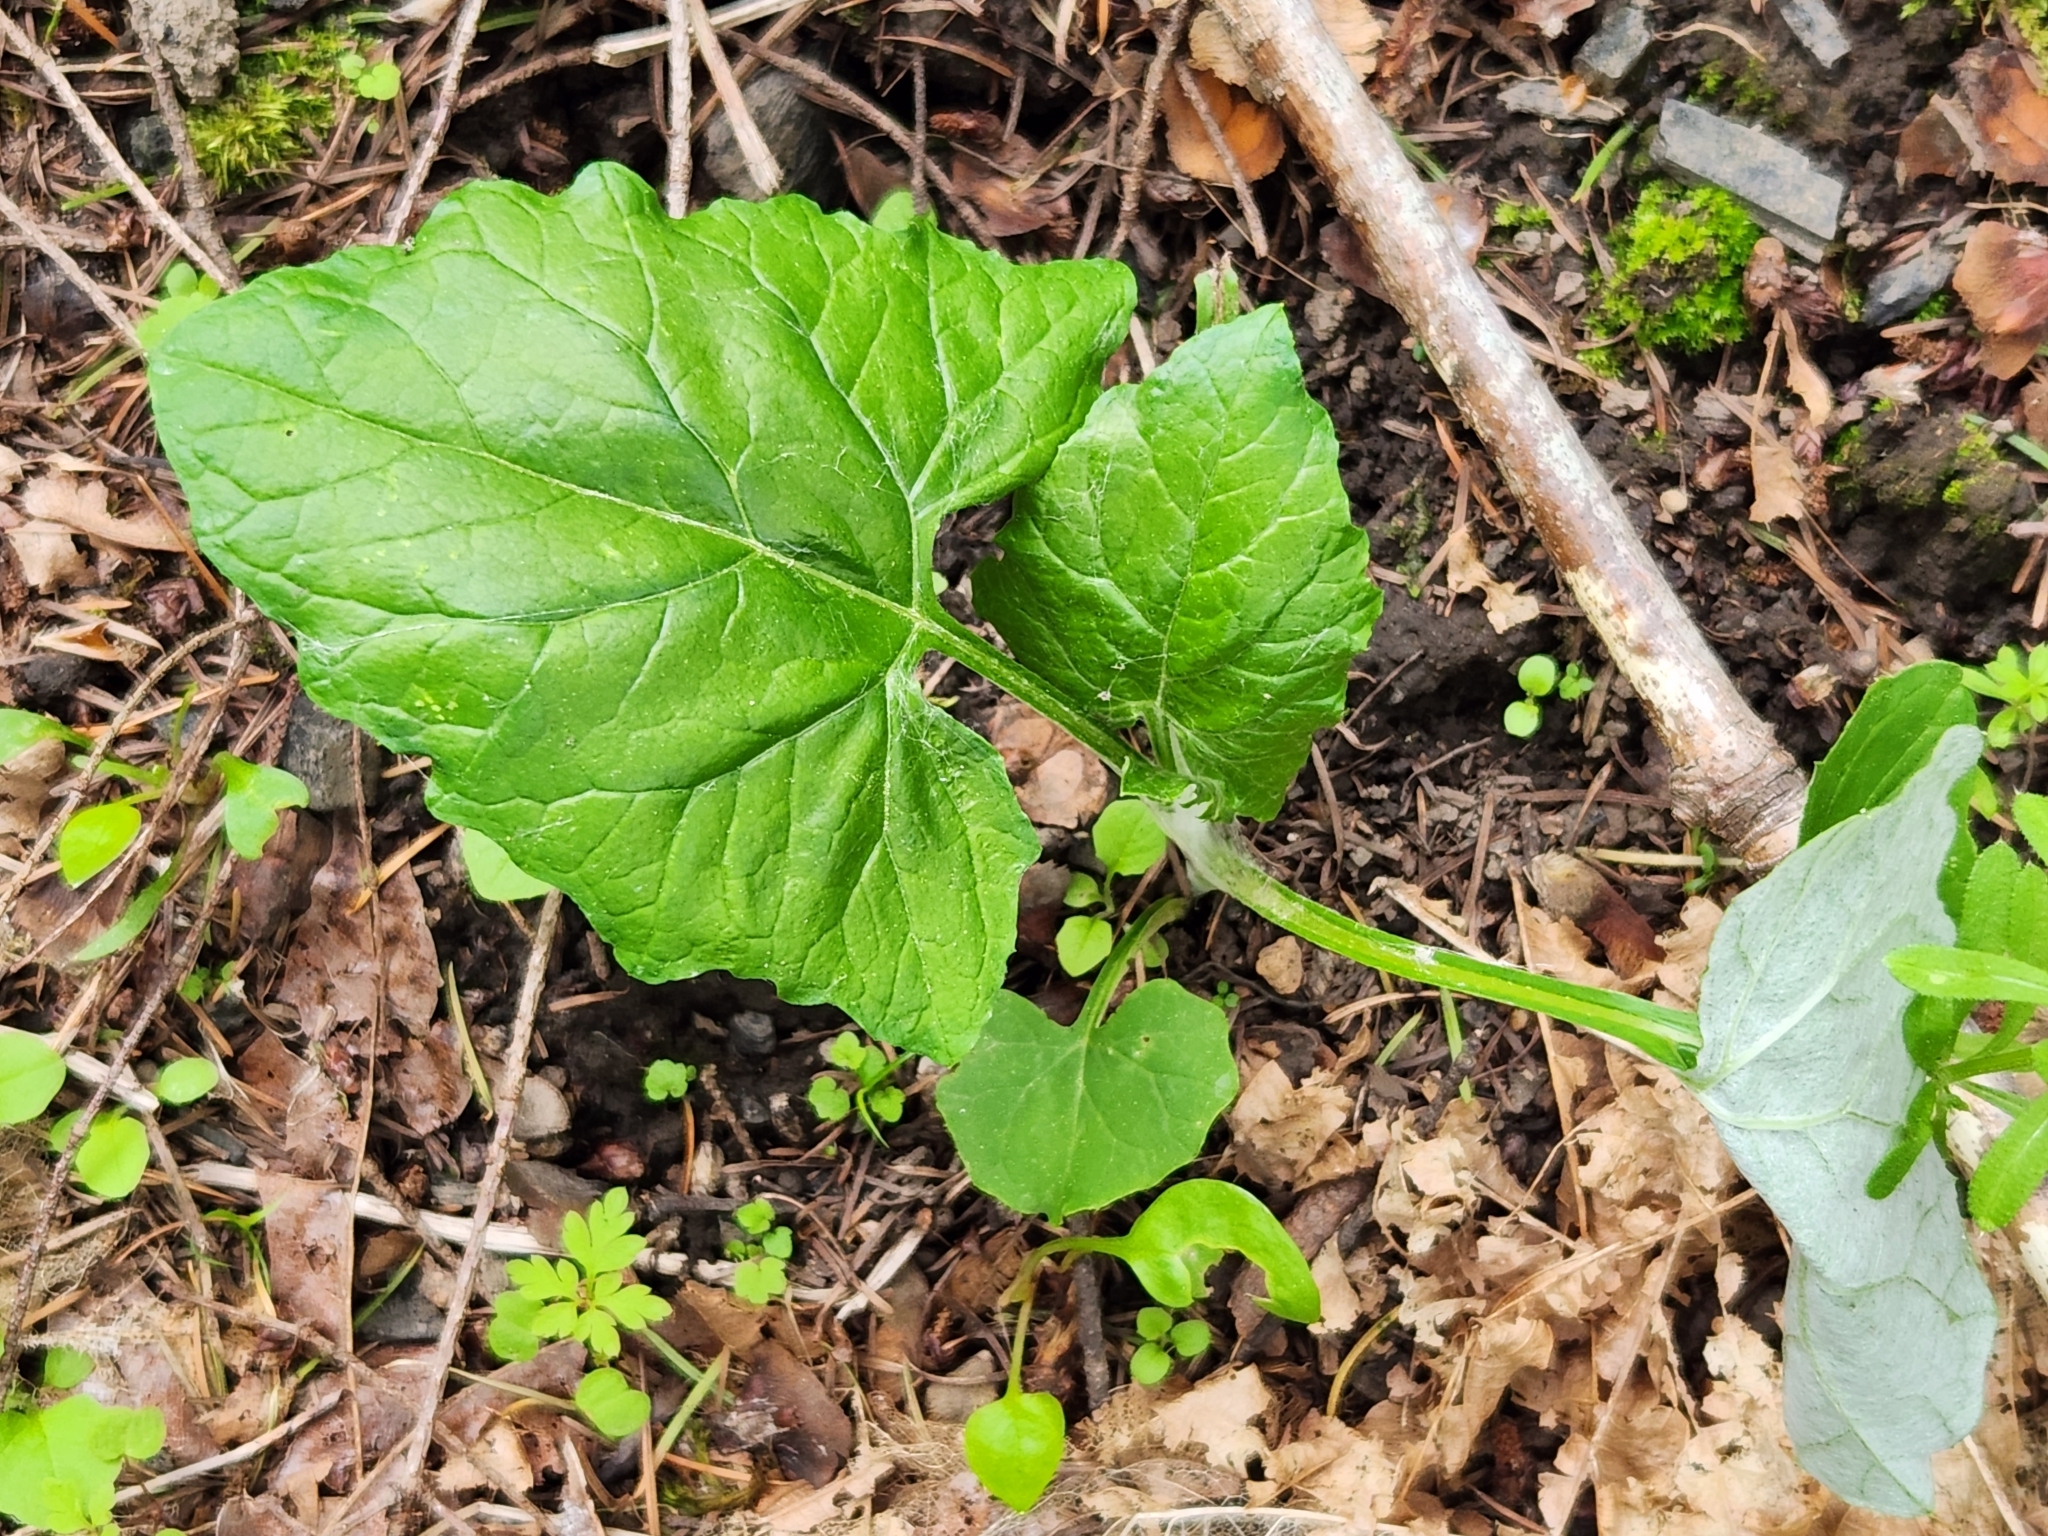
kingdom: Plantae
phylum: Tracheophyta
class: Magnoliopsida
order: Asterales
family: Asteraceae
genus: Adenocaulon
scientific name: Adenocaulon bicolor
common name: Trailplant
